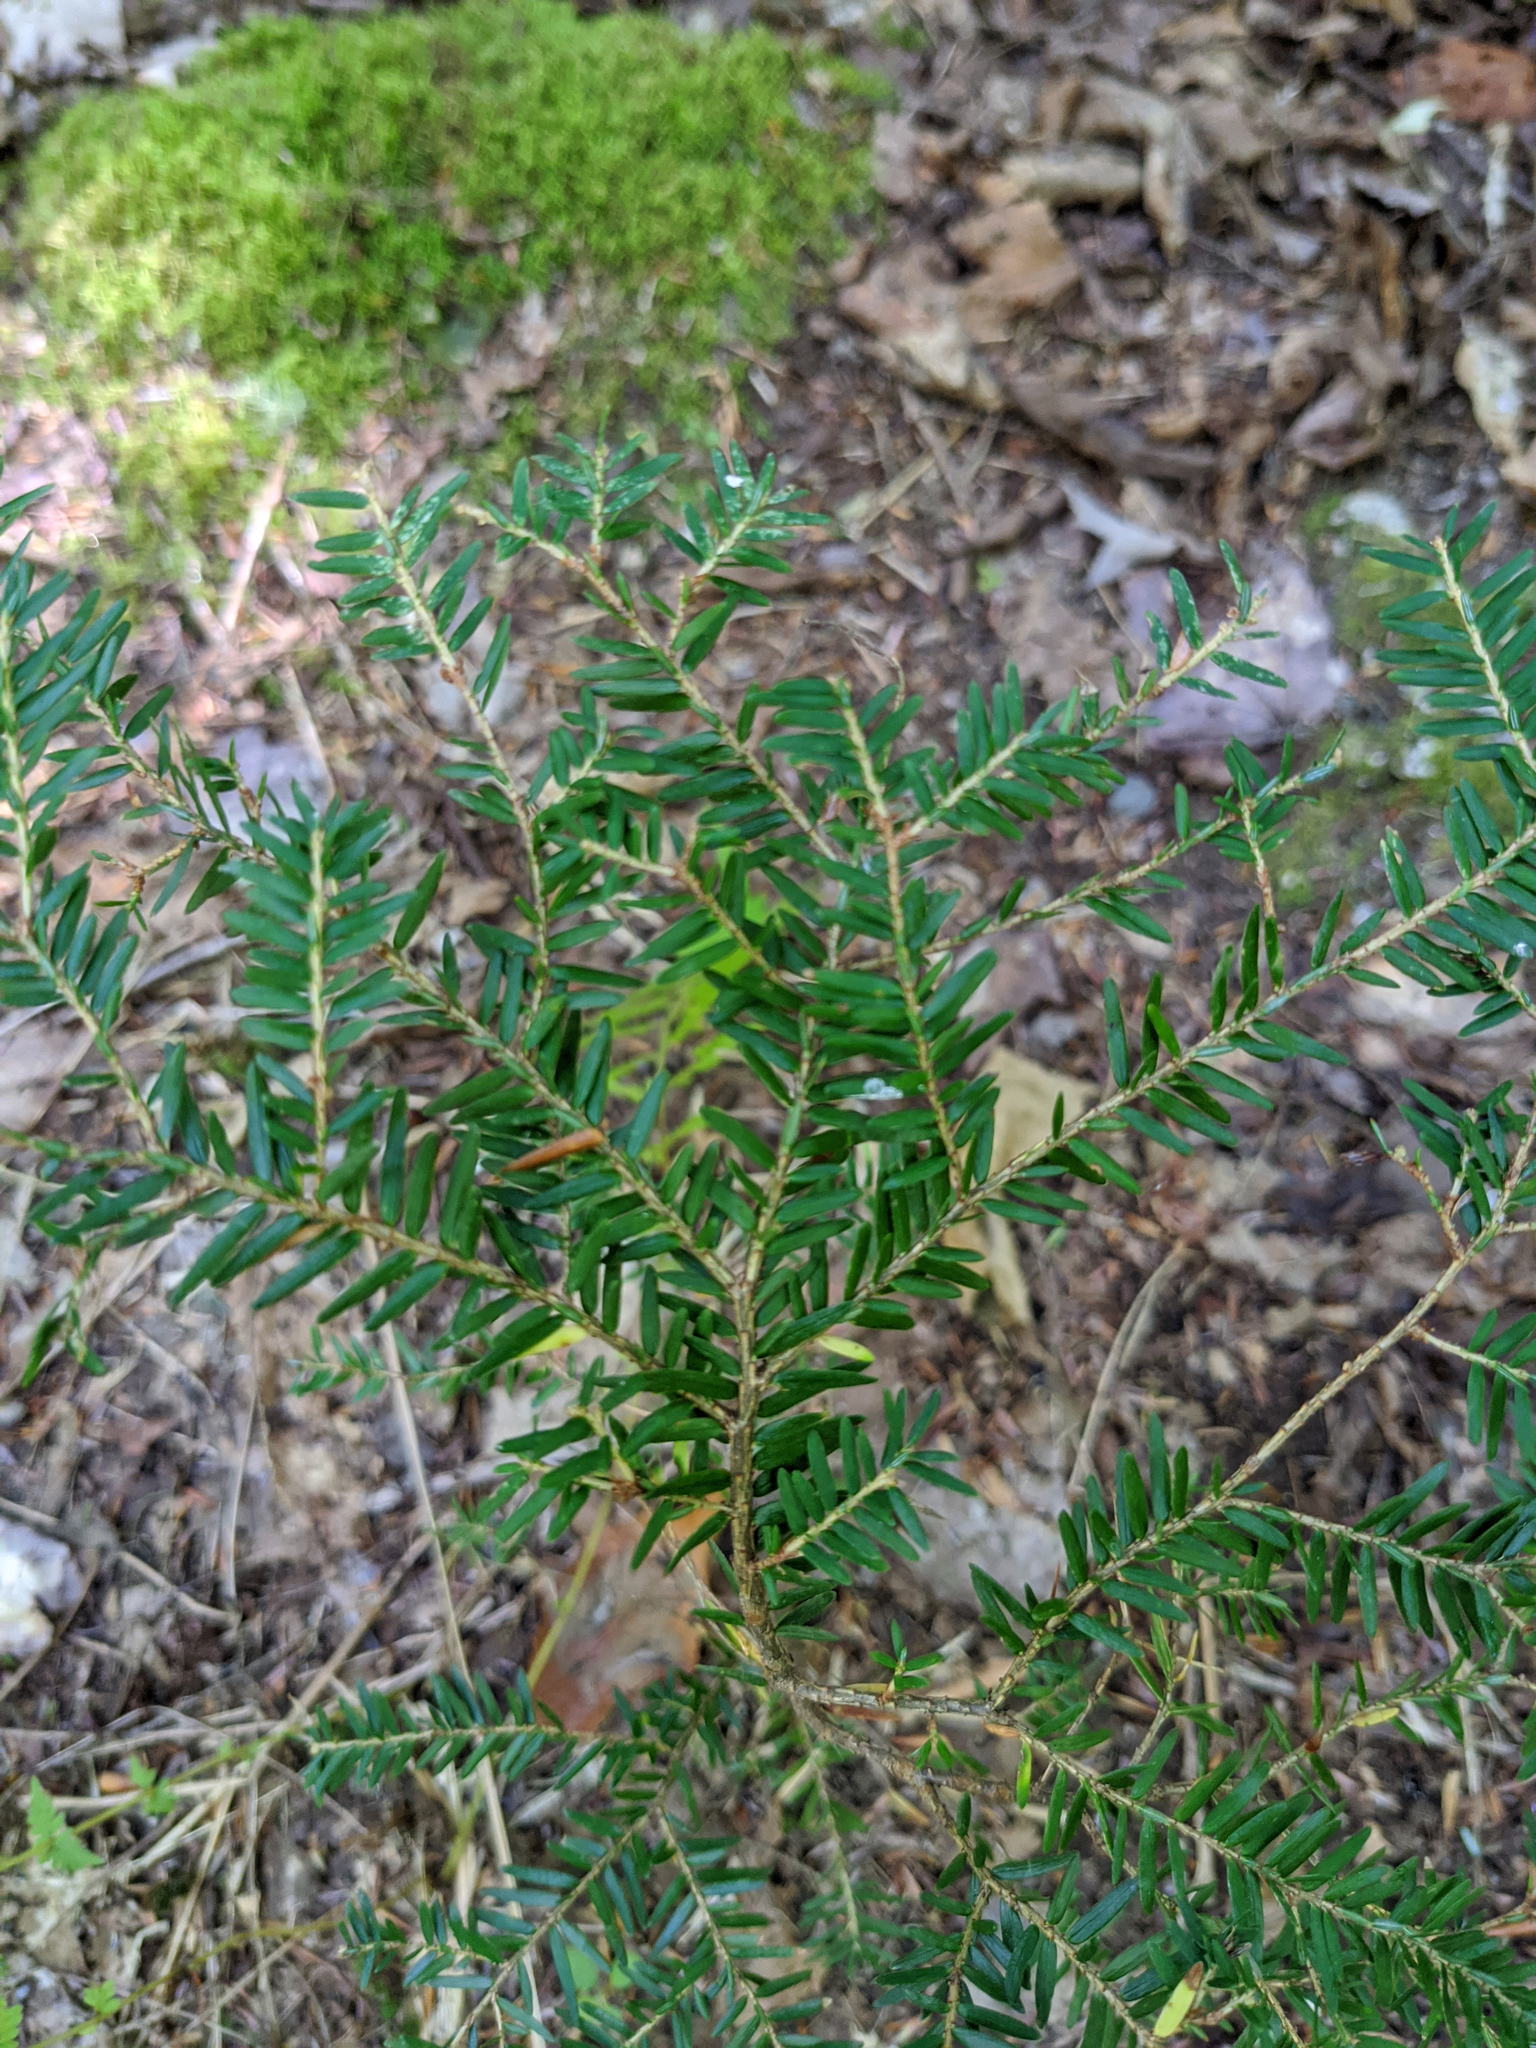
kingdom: Plantae
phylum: Tracheophyta
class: Pinopsida
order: Pinales
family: Pinaceae
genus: Tsuga
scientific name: Tsuga canadensis
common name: Eastern hemlock
